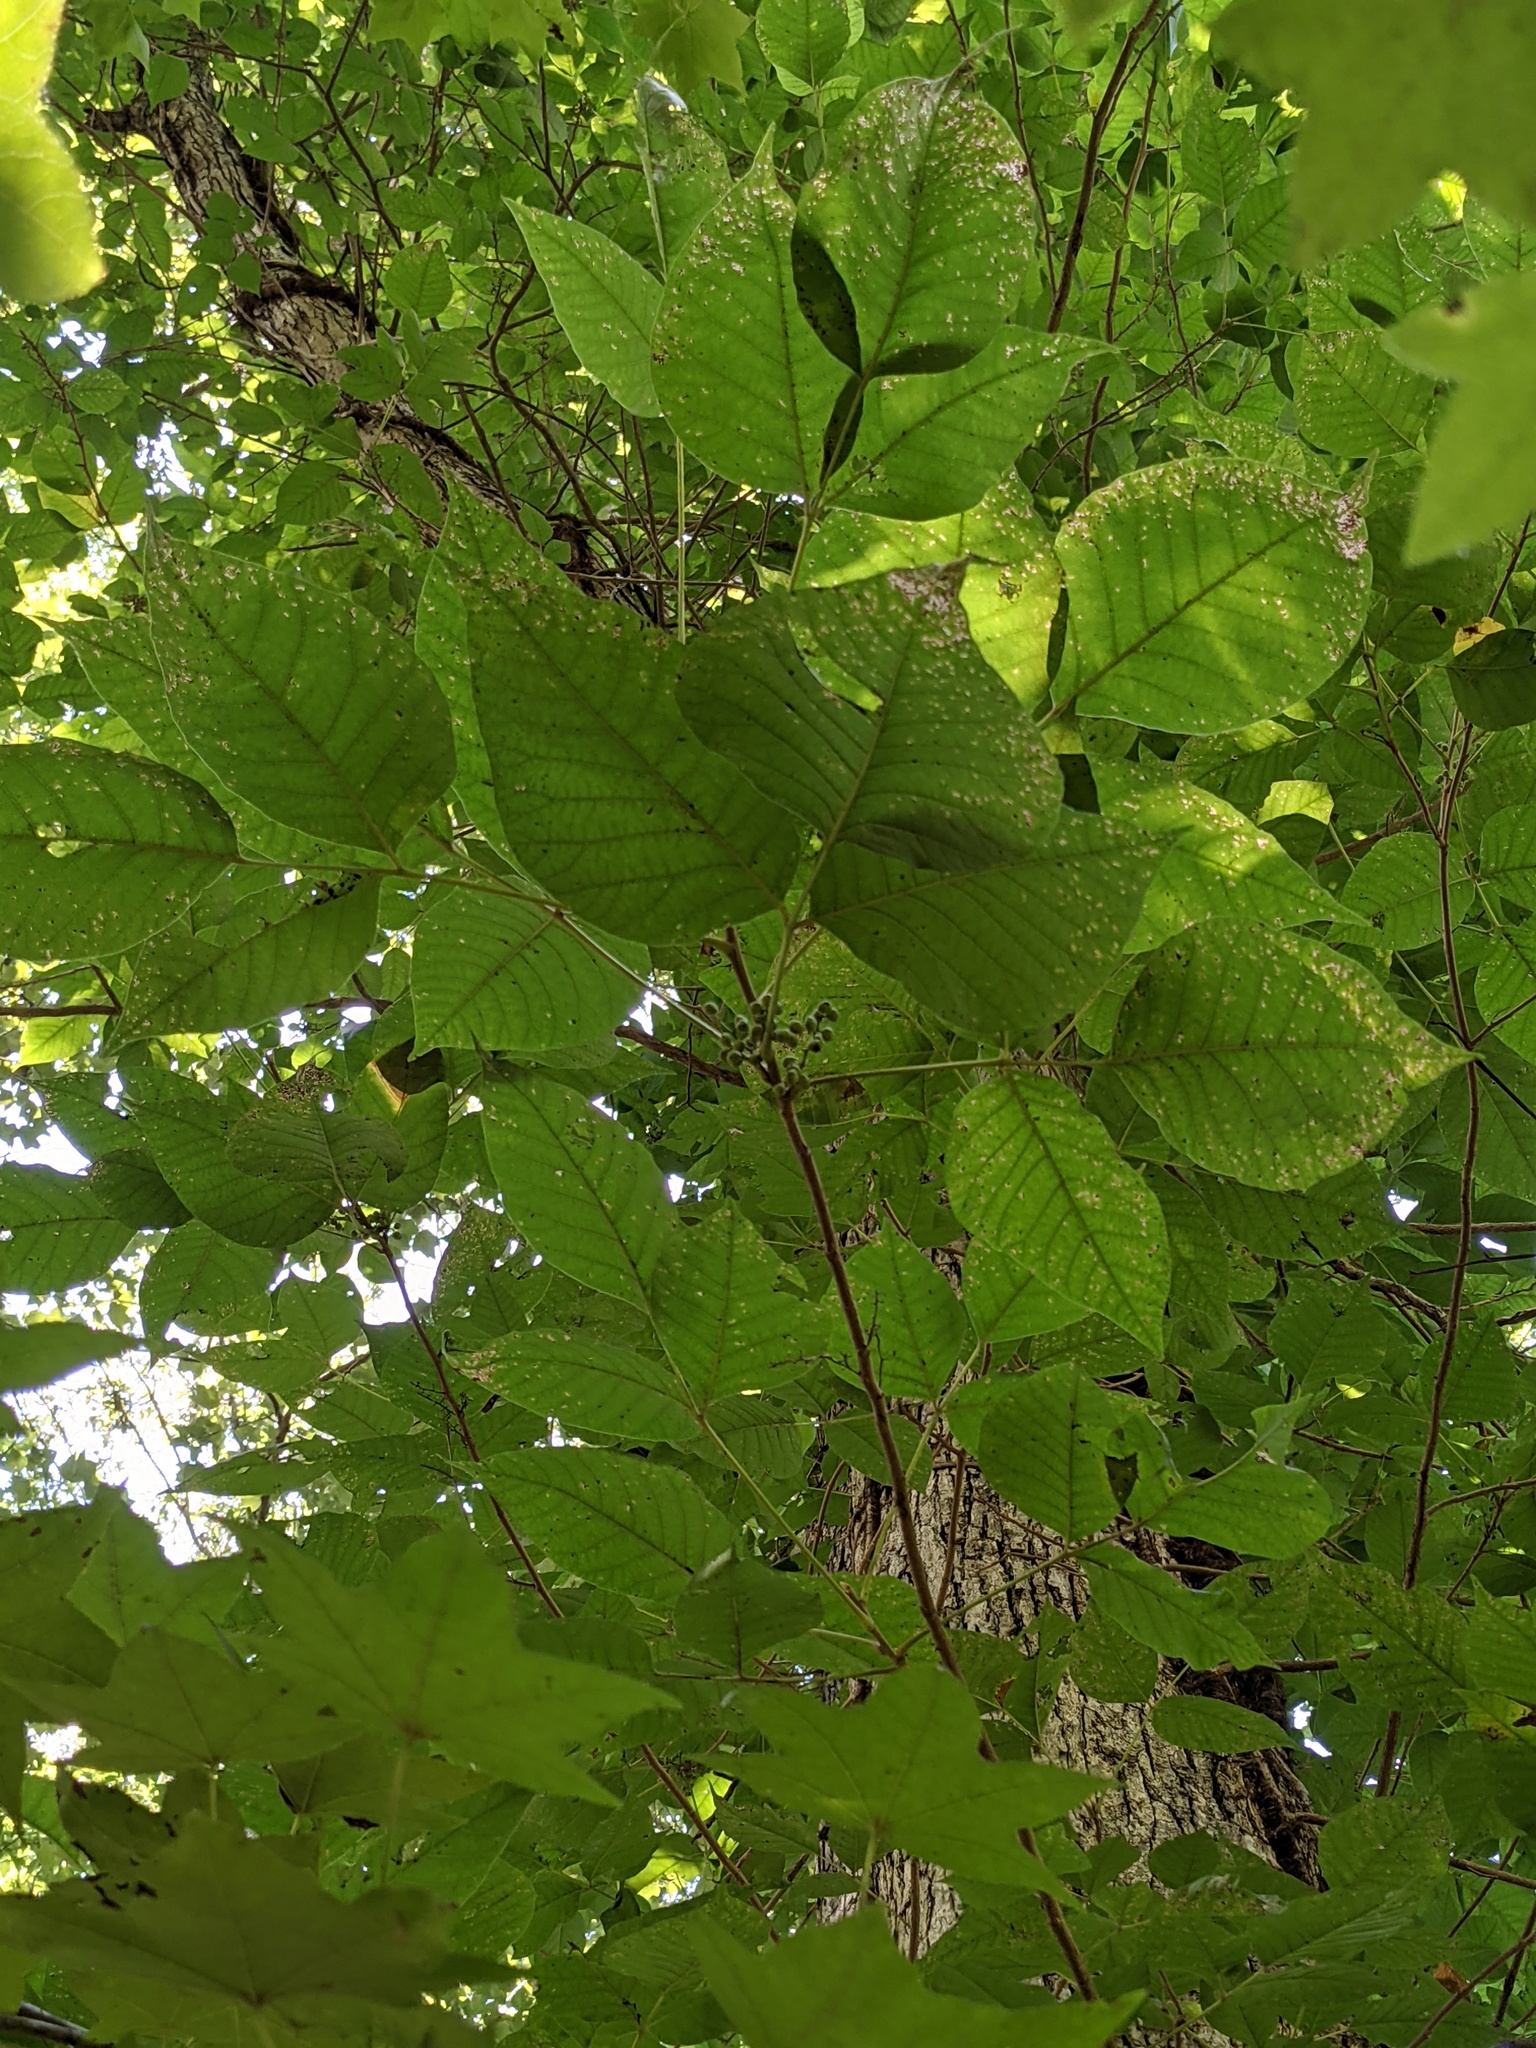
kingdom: Plantae
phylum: Tracheophyta
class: Magnoliopsida
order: Sapindales
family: Anacardiaceae
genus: Toxicodendron
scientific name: Toxicodendron radicans
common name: Poison ivy
